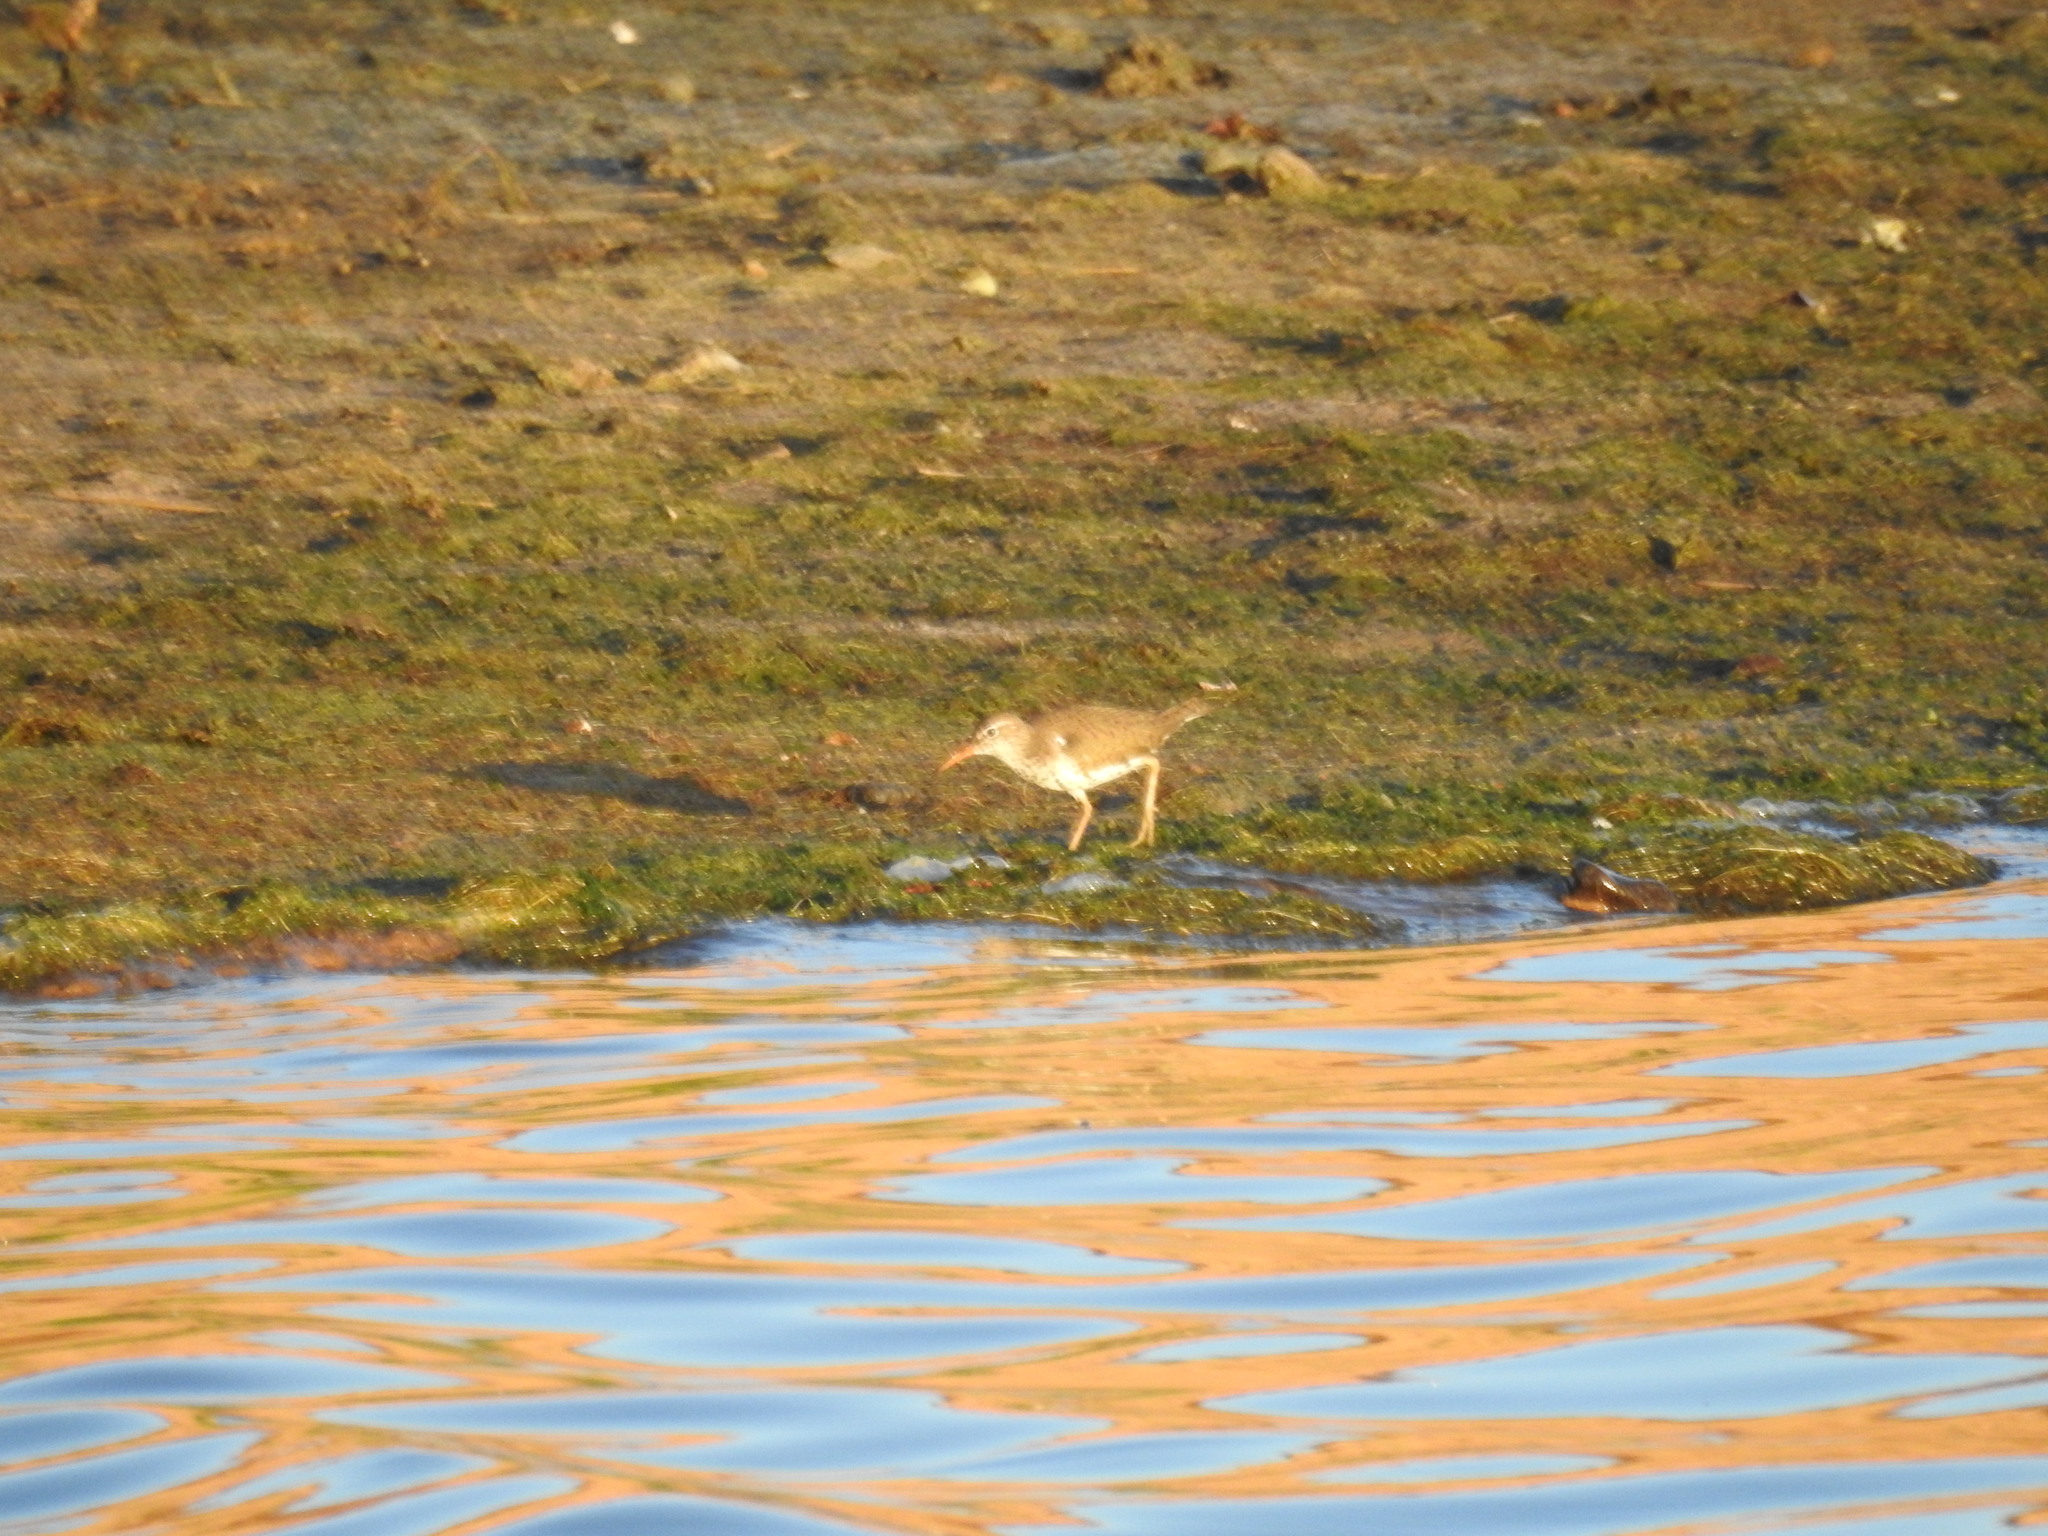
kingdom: Animalia
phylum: Chordata
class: Aves
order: Charadriiformes
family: Scolopacidae
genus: Actitis
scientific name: Actitis macularius
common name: Spotted sandpiper
